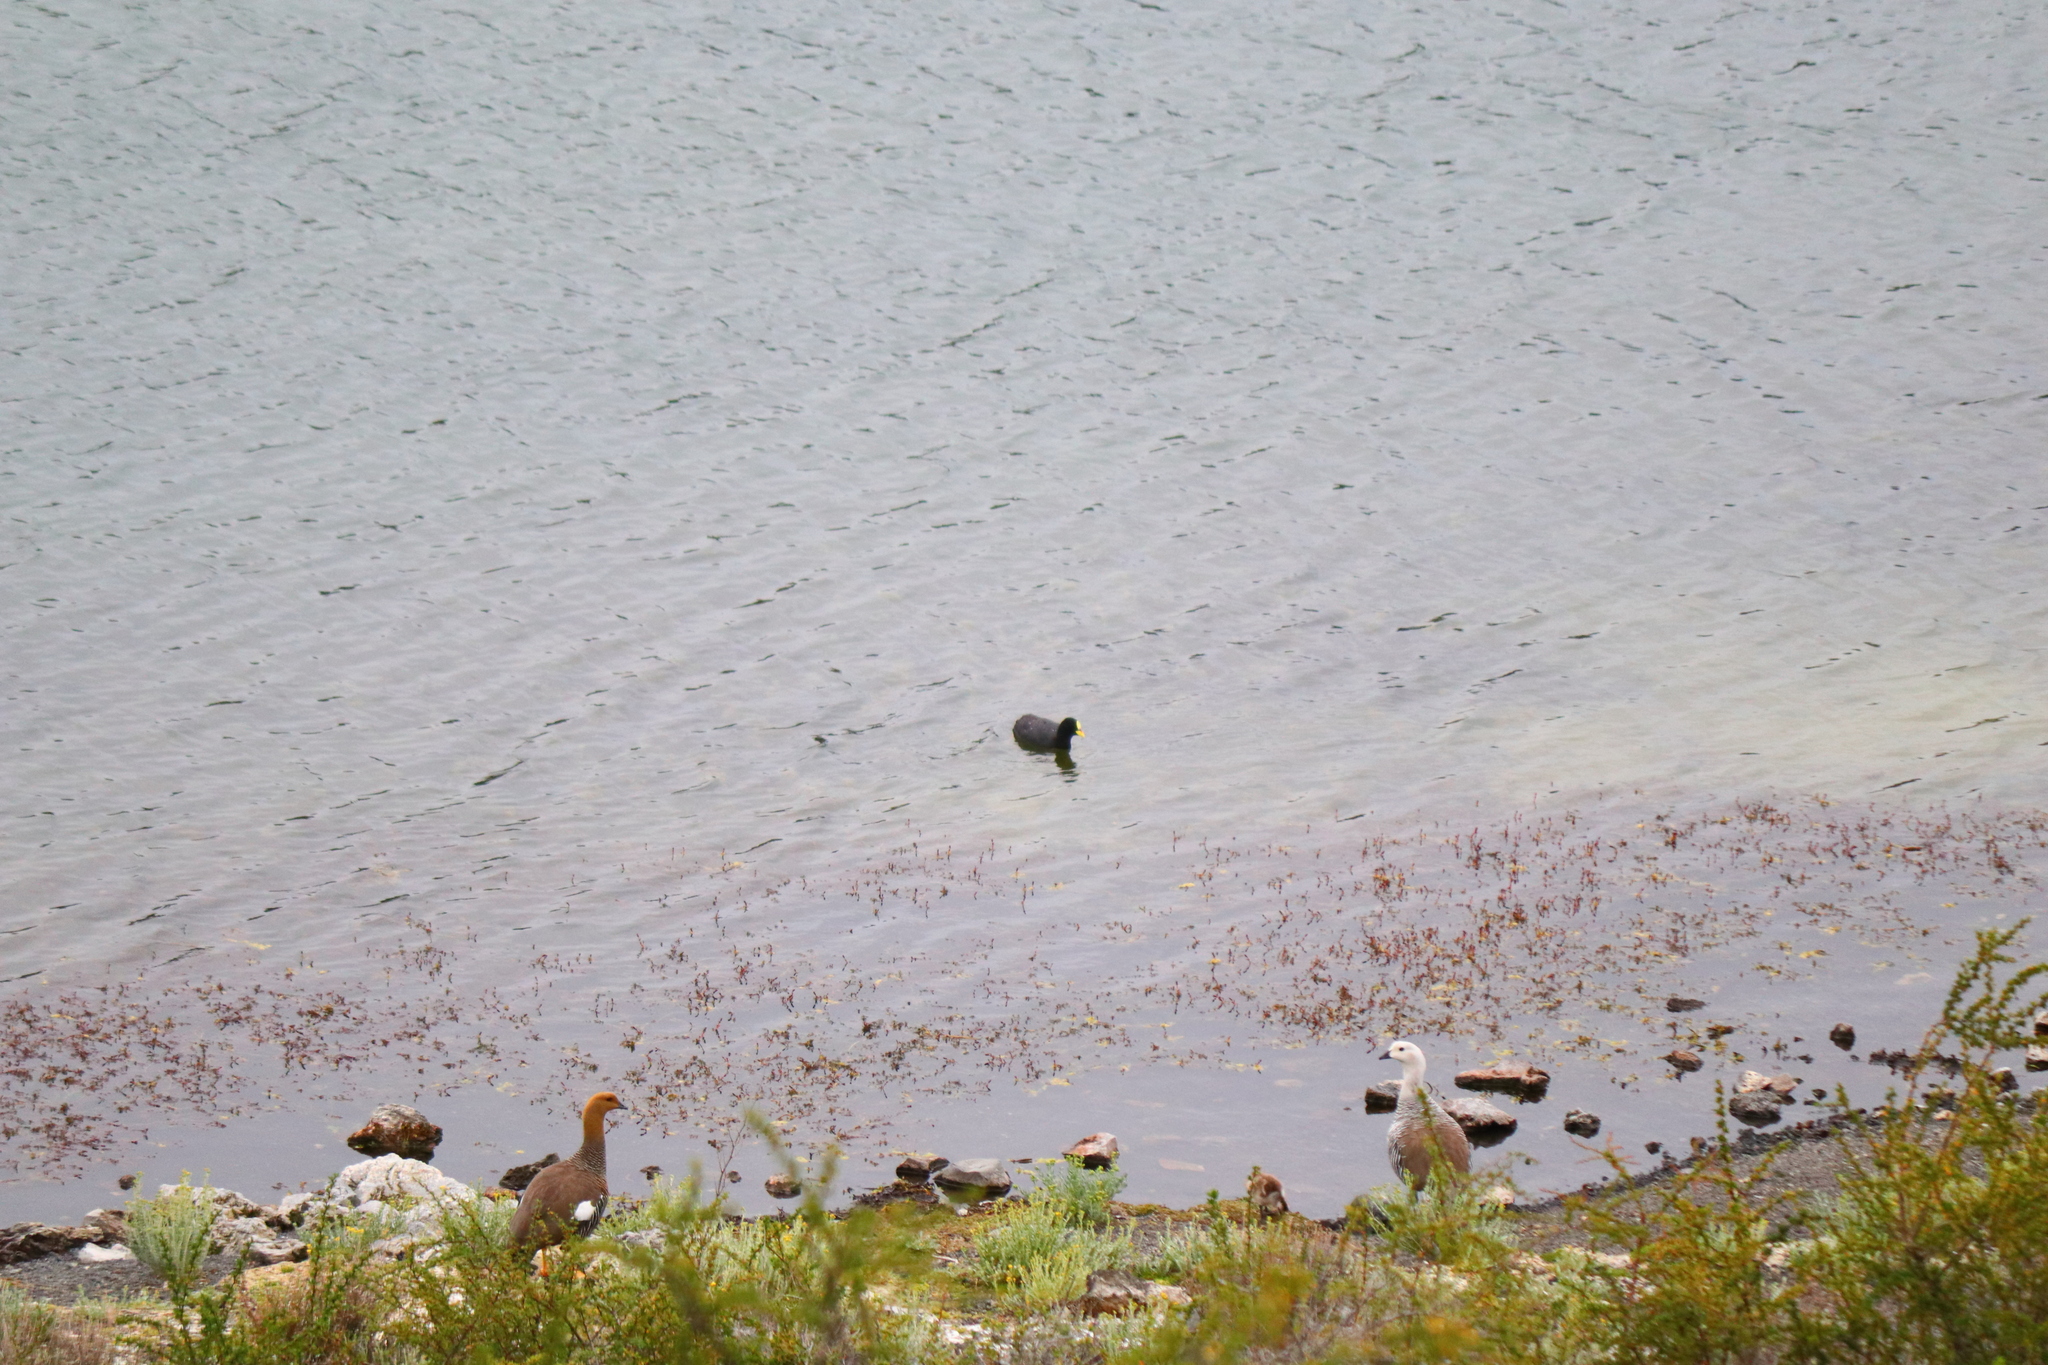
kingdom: Animalia
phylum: Chordata
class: Aves
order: Gruiformes
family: Rallidae
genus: Fulica
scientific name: Fulica armillata
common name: Red-gartered coot
